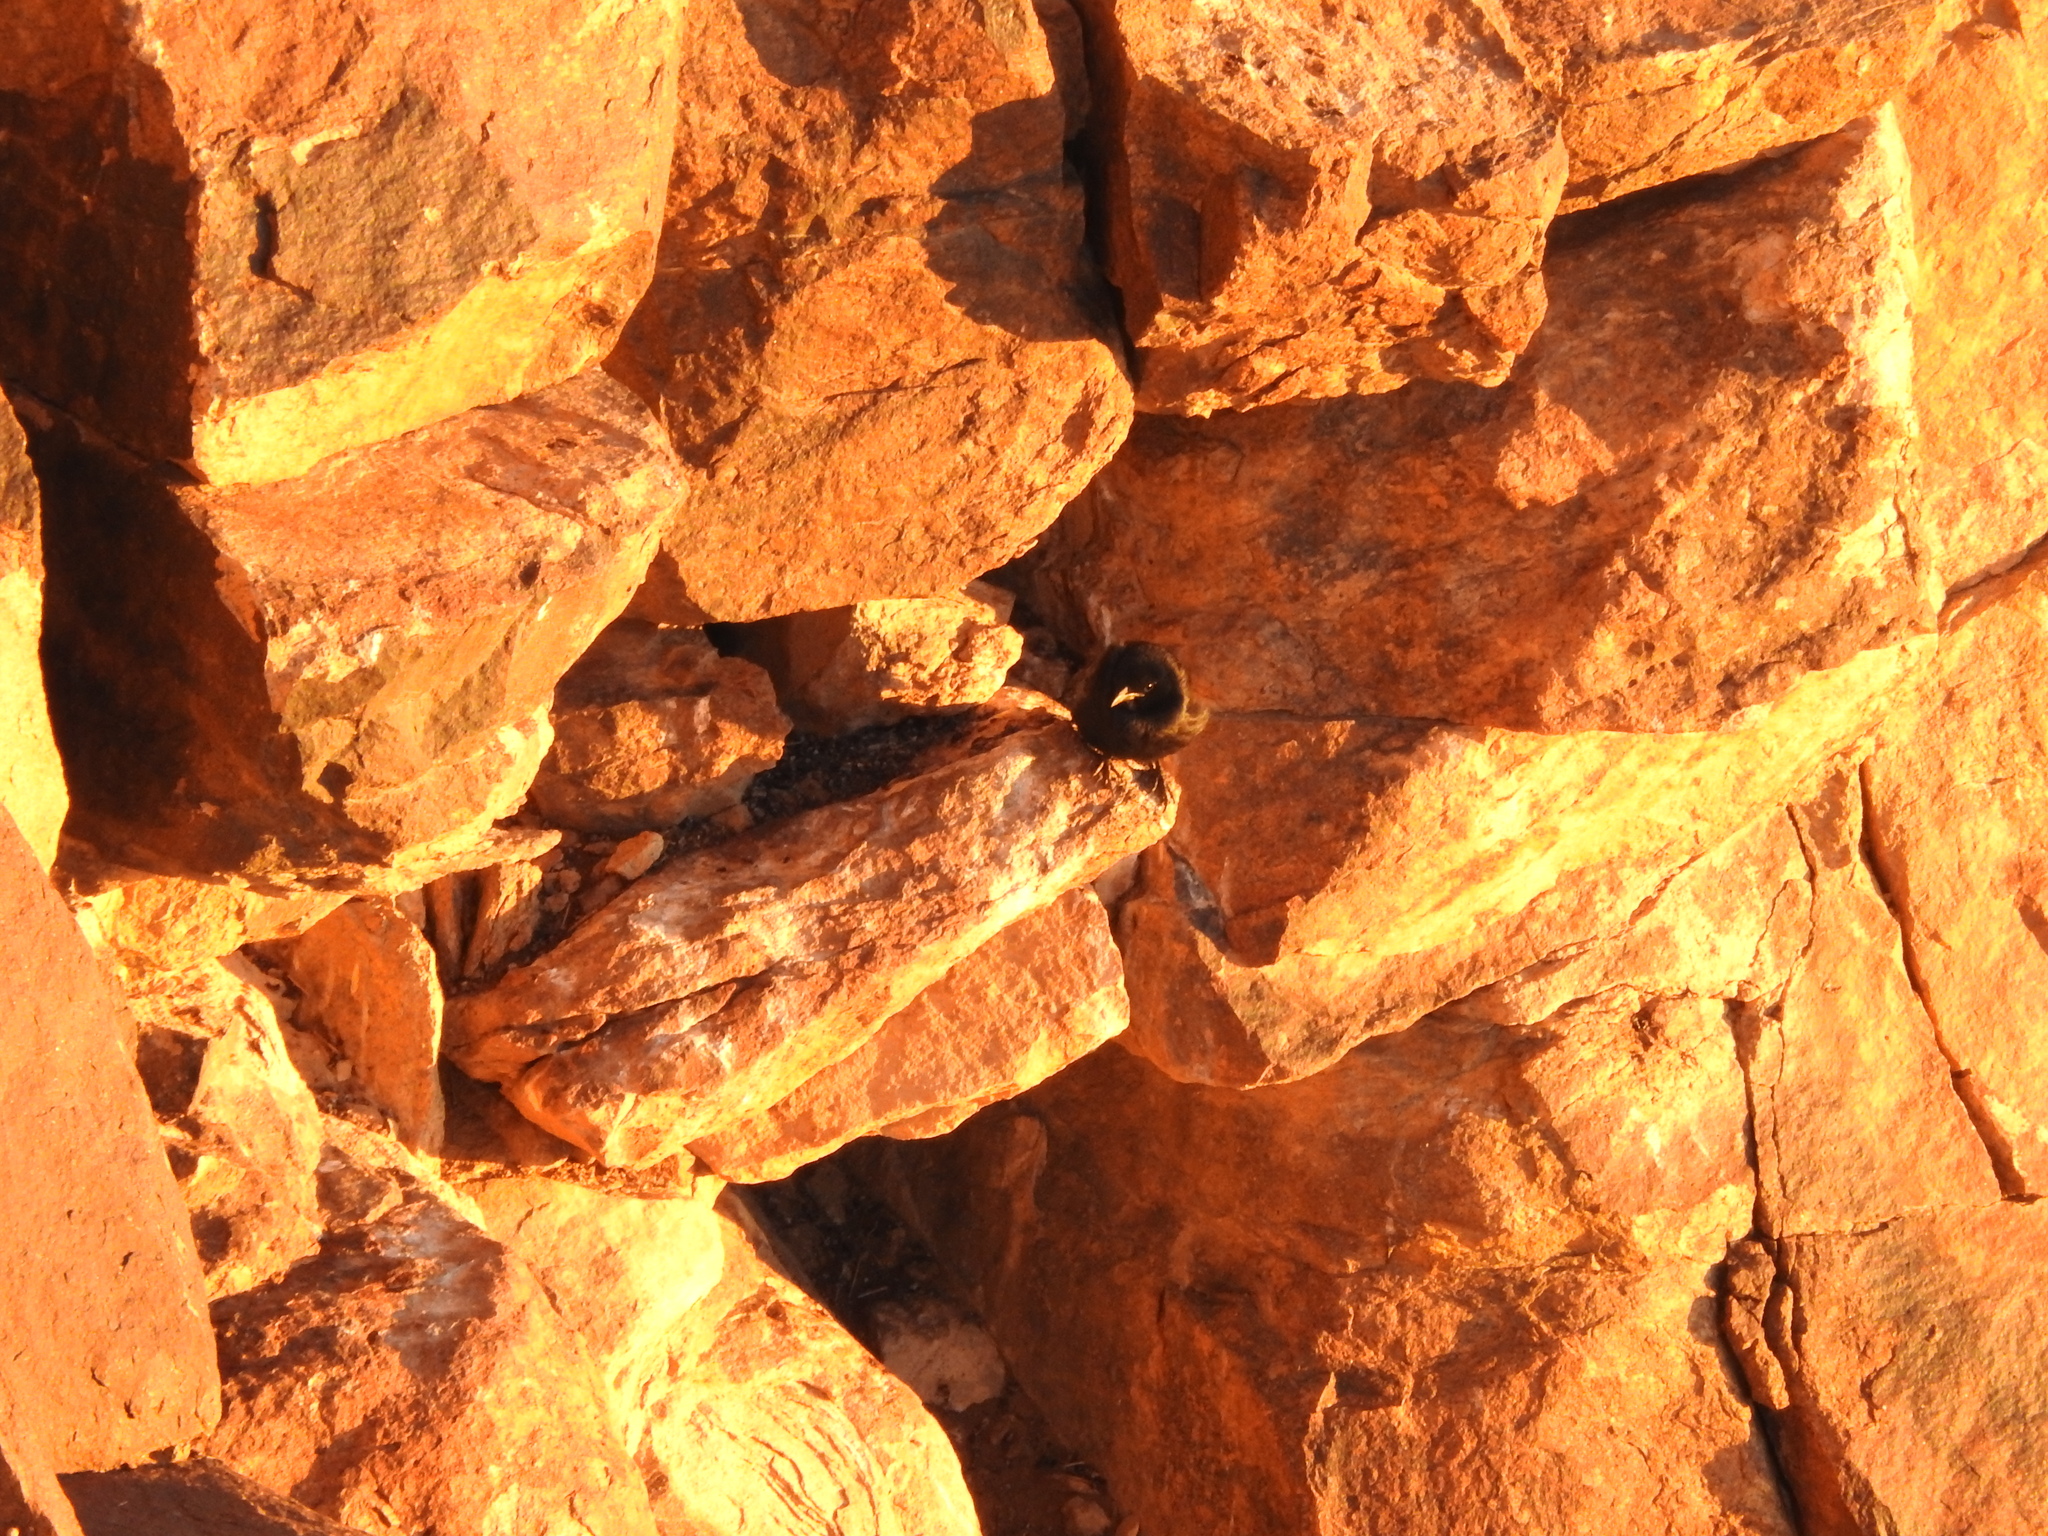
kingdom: Animalia
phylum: Chordata
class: Aves
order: Passeriformes
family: Sturnidae
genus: Onychognathus
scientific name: Onychognathus tristramii
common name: Tristram's starling
